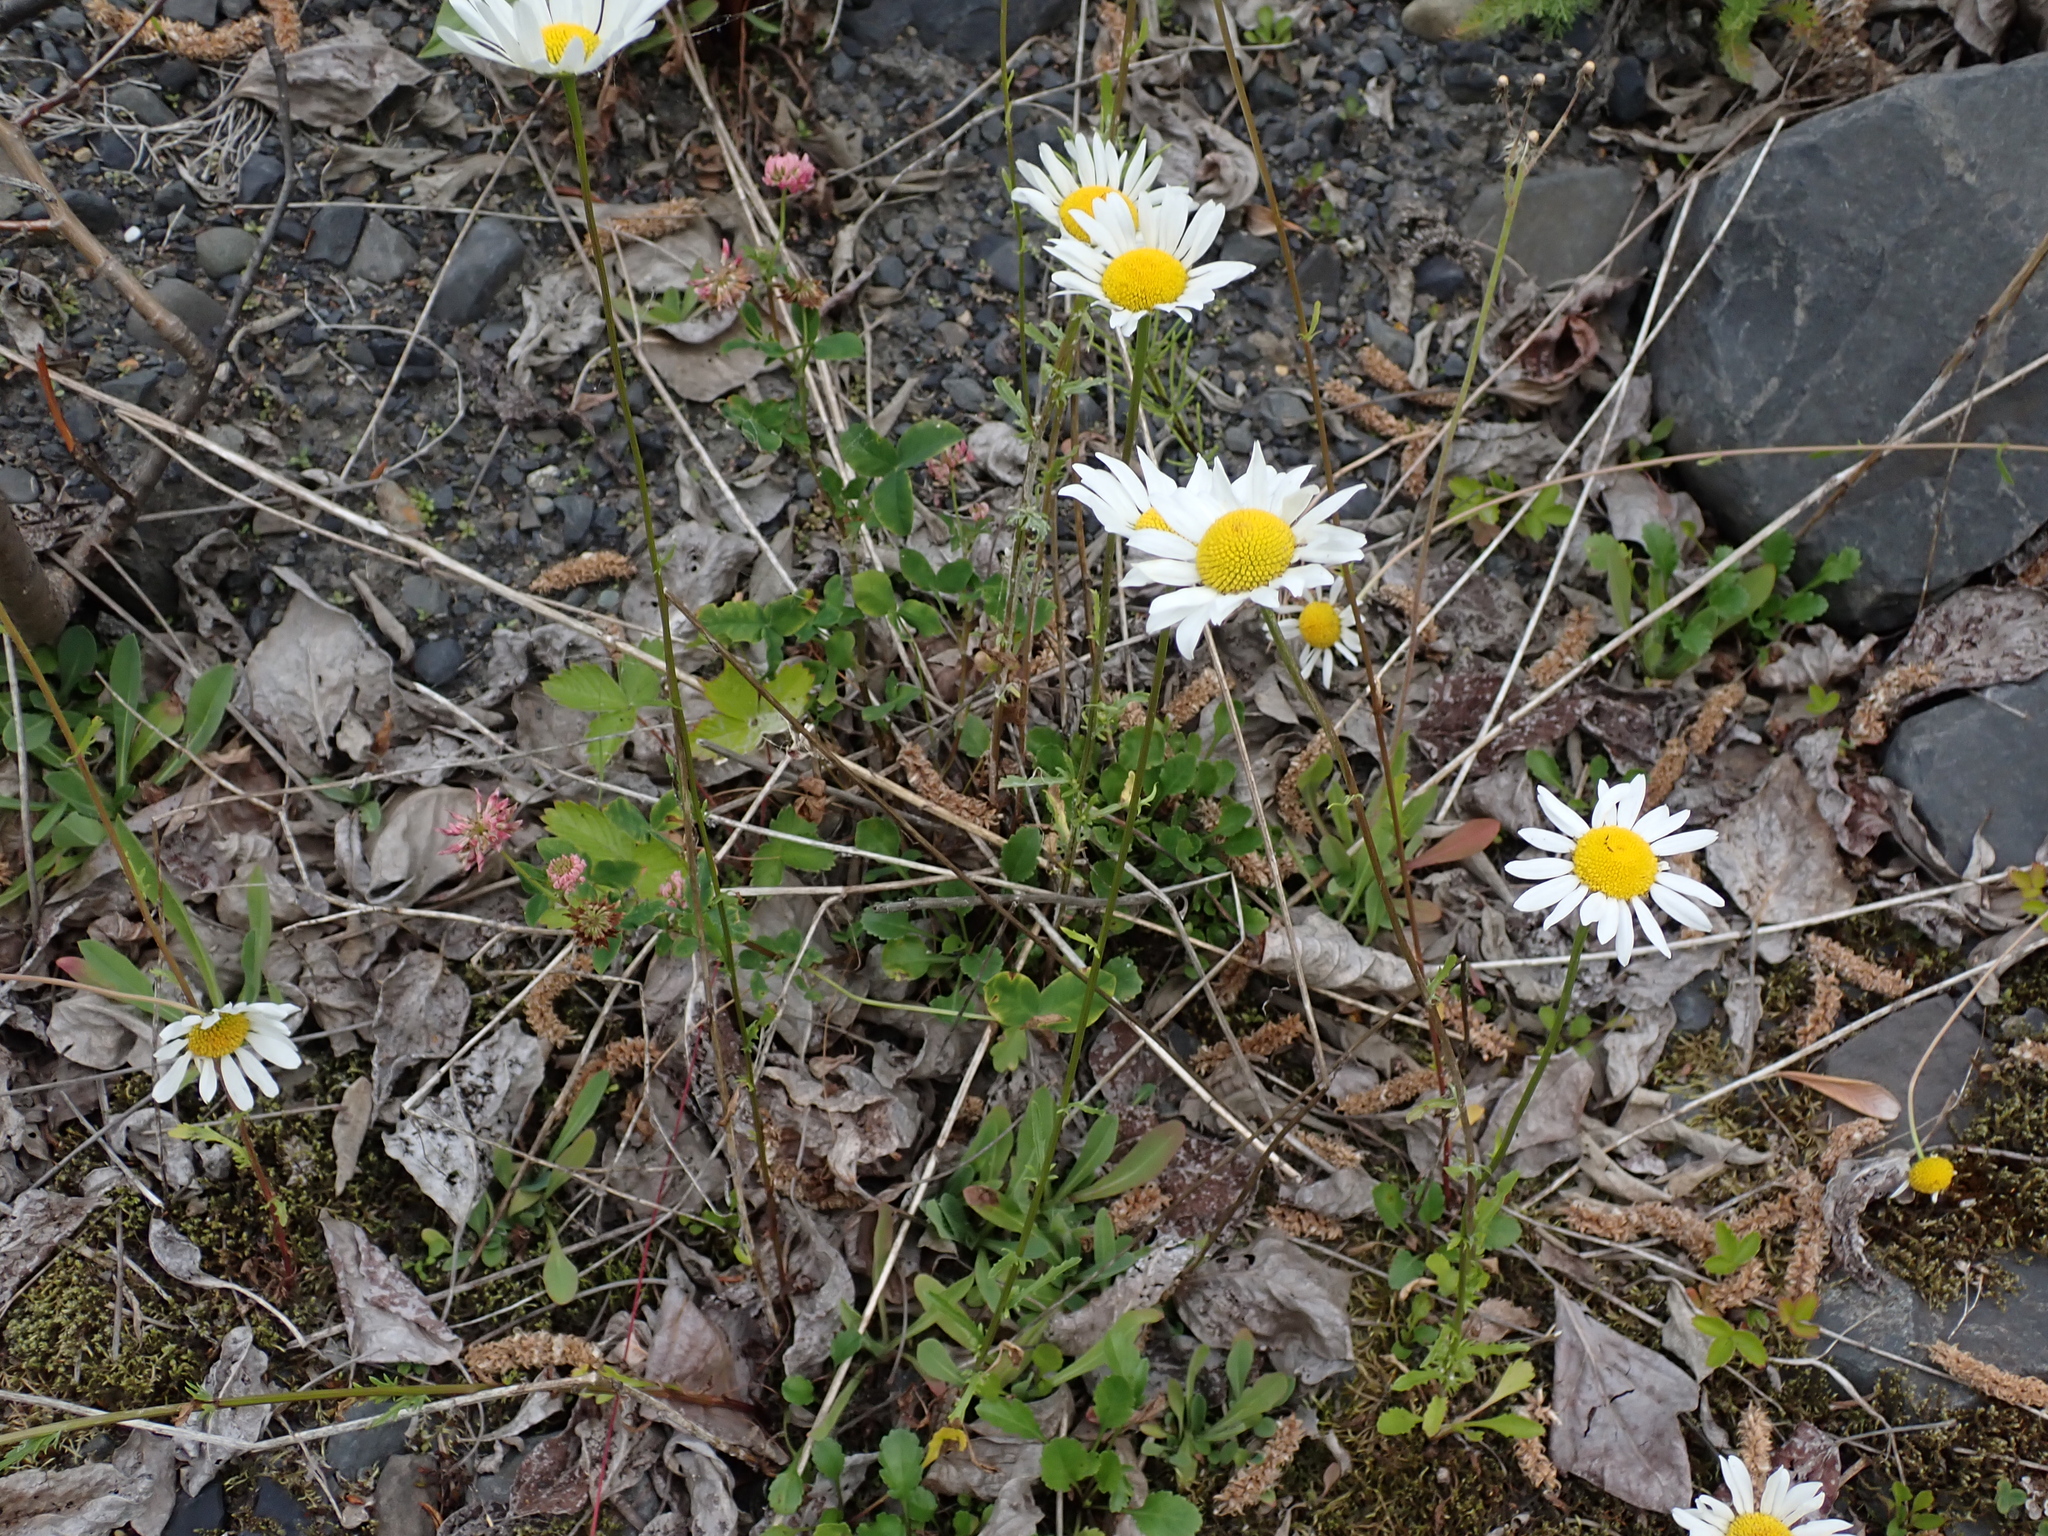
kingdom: Plantae
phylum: Tracheophyta
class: Magnoliopsida
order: Asterales
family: Asteraceae
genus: Leucanthemum
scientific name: Leucanthemum vulgare
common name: Oxeye daisy
